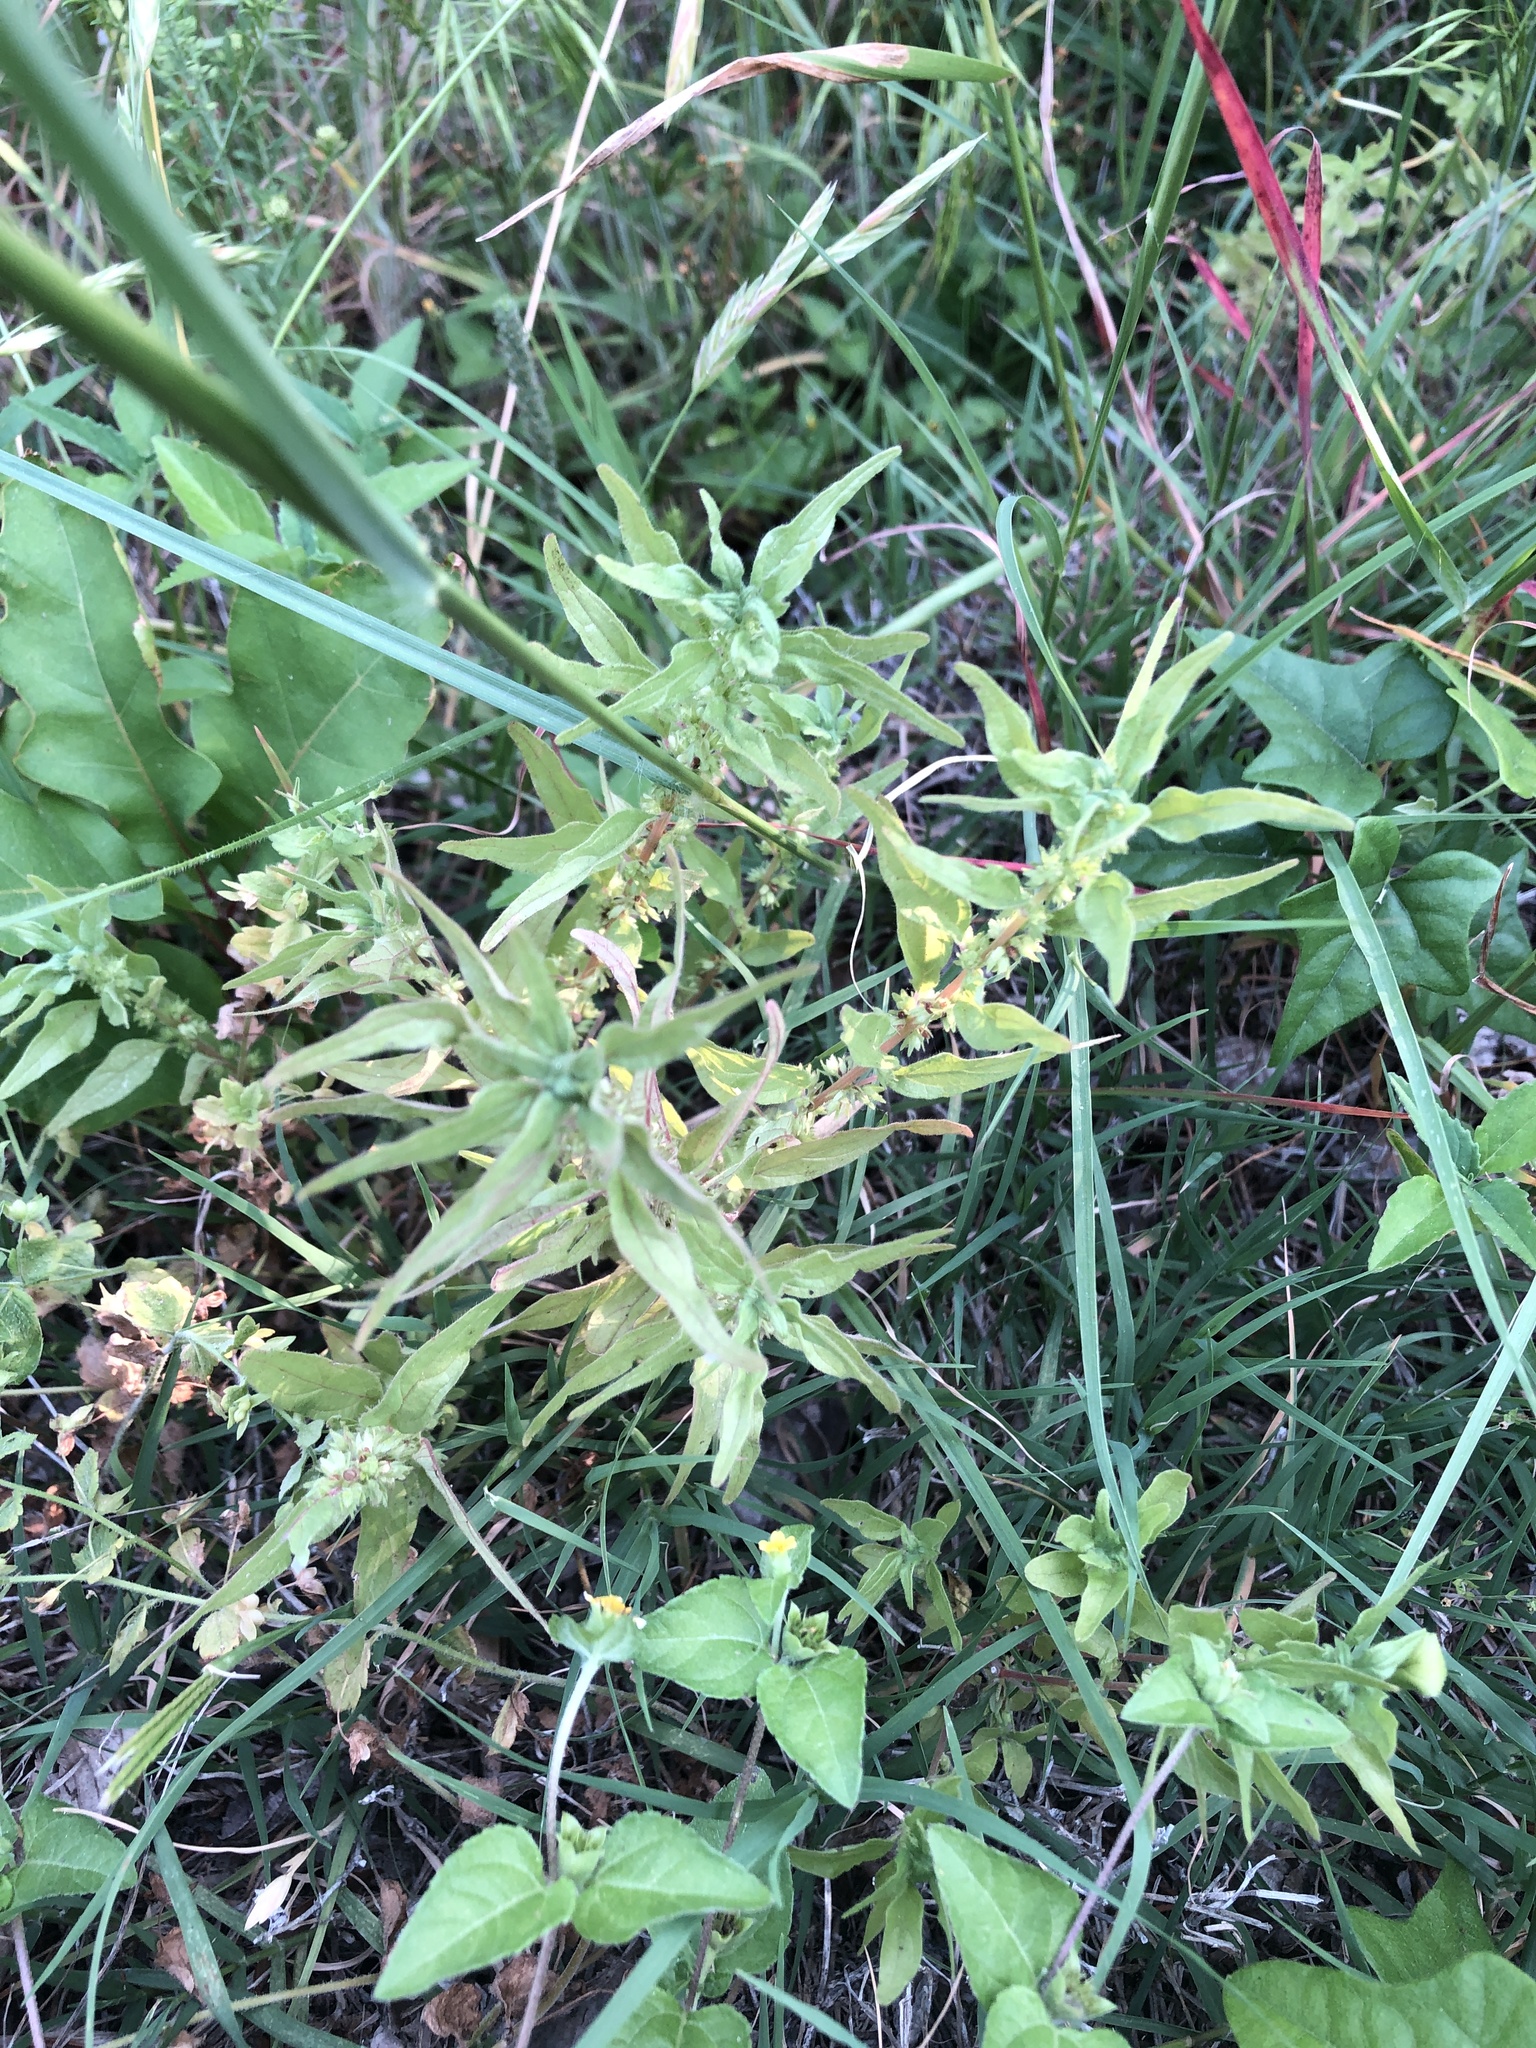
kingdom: Plantae
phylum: Tracheophyta
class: Magnoliopsida
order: Rosales
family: Urticaceae
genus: Parietaria
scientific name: Parietaria pensylvanica
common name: Pennsylvania pellitory
